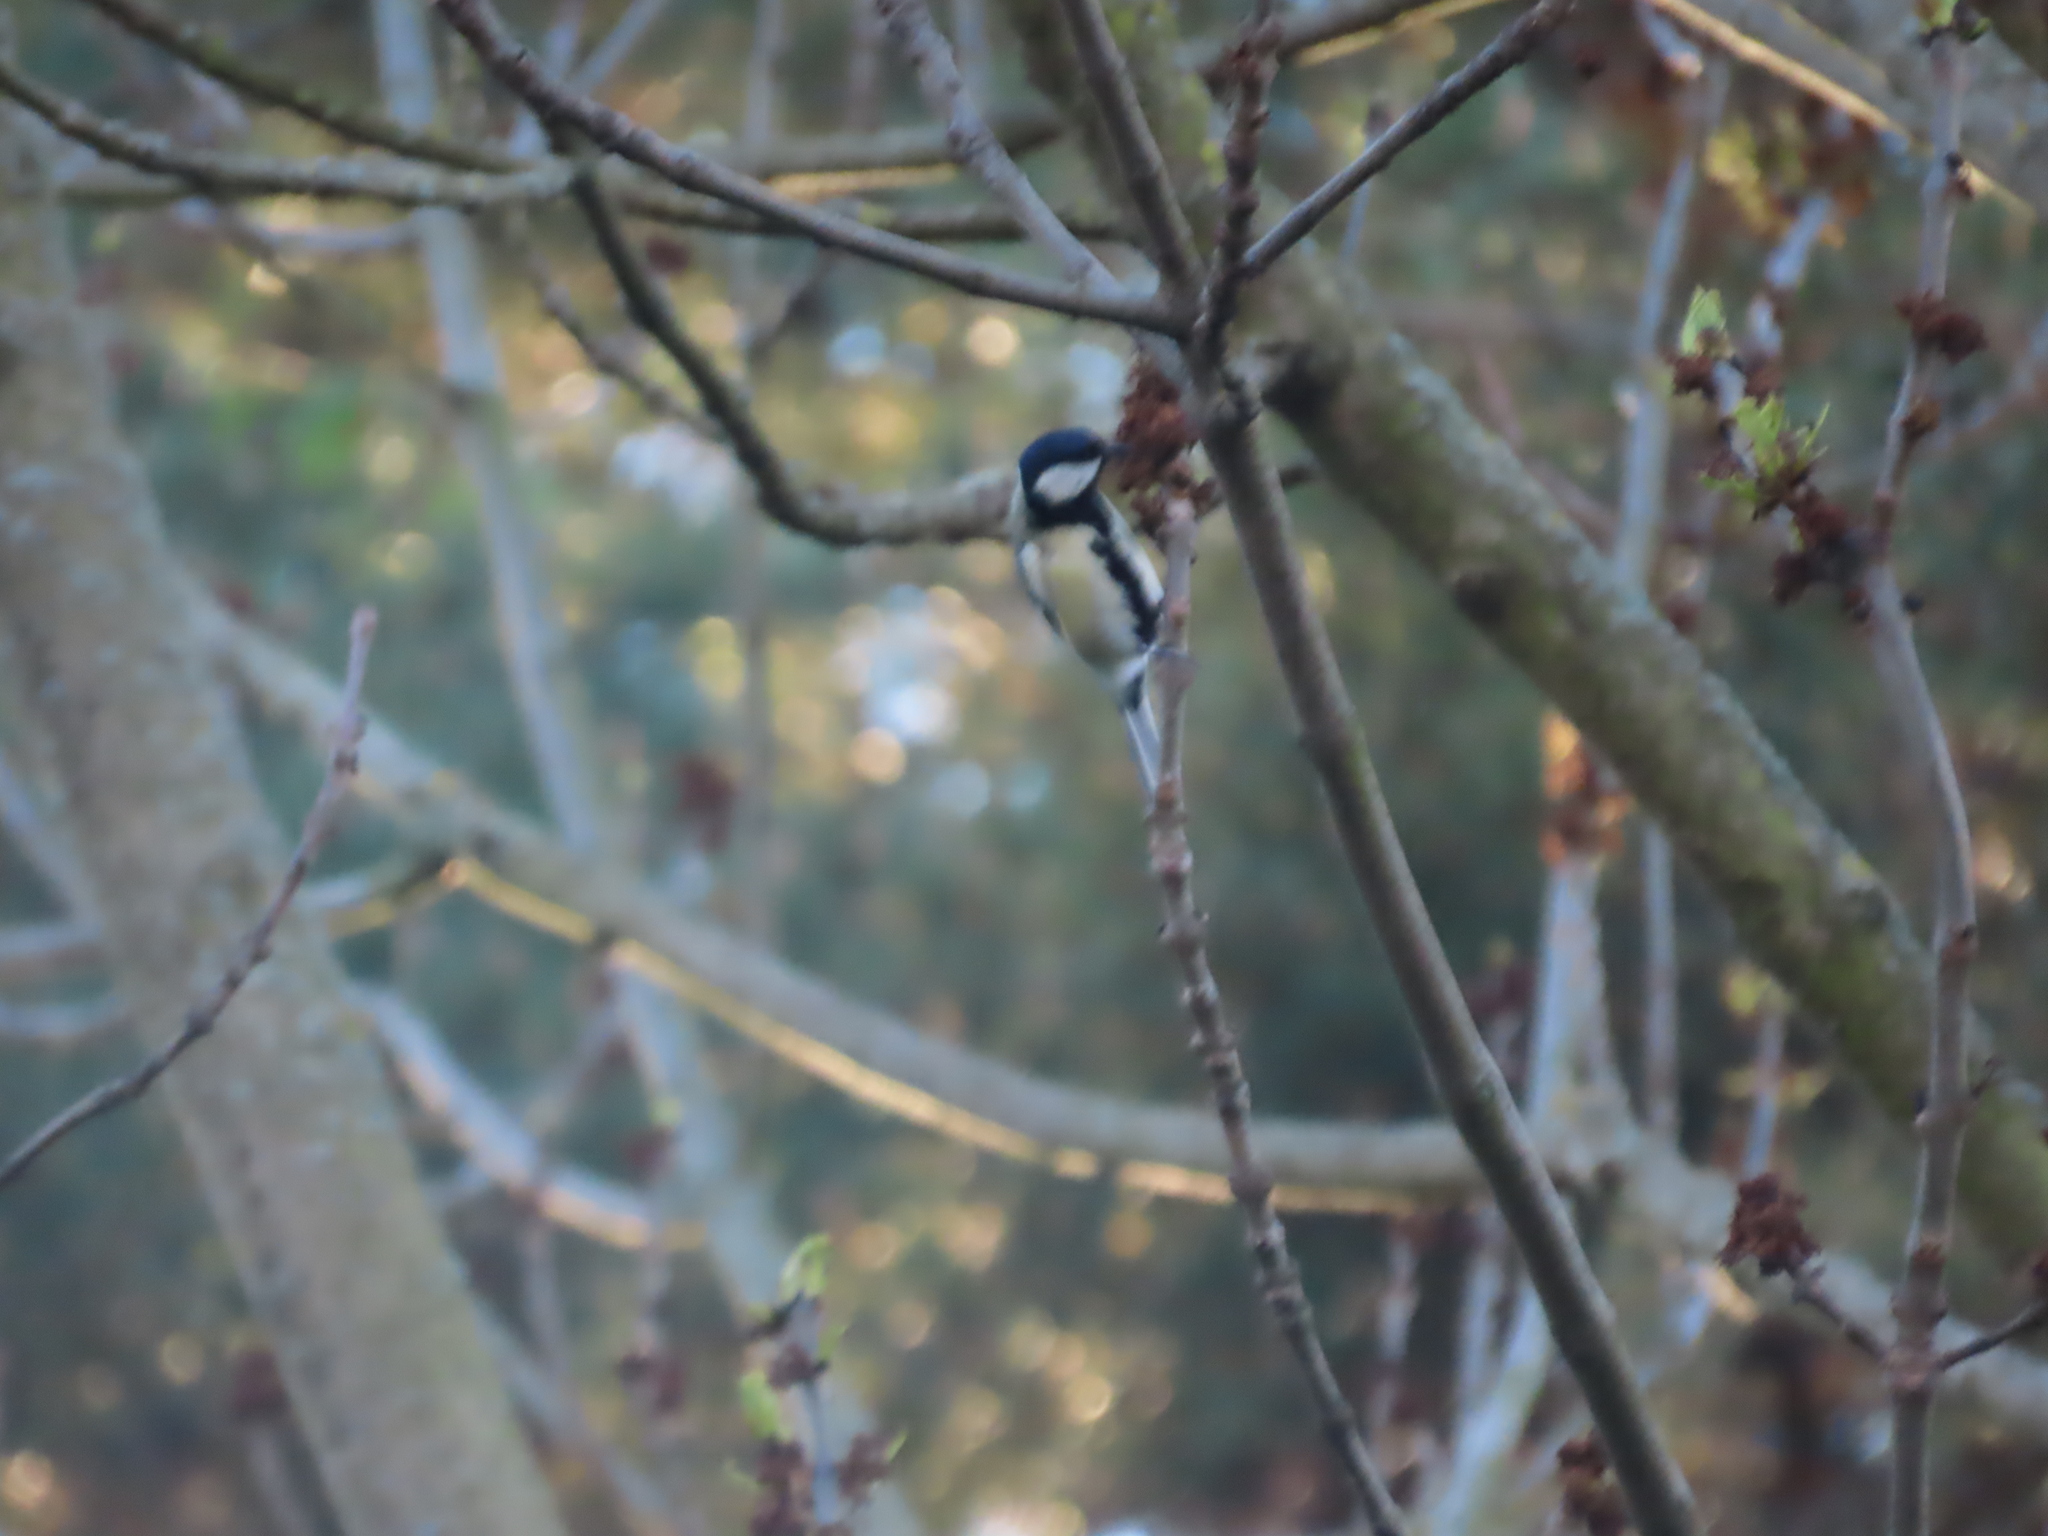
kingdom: Animalia
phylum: Chordata
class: Aves
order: Passeriformes
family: Paridae
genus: Parus
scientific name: Parus major
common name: Great tit
